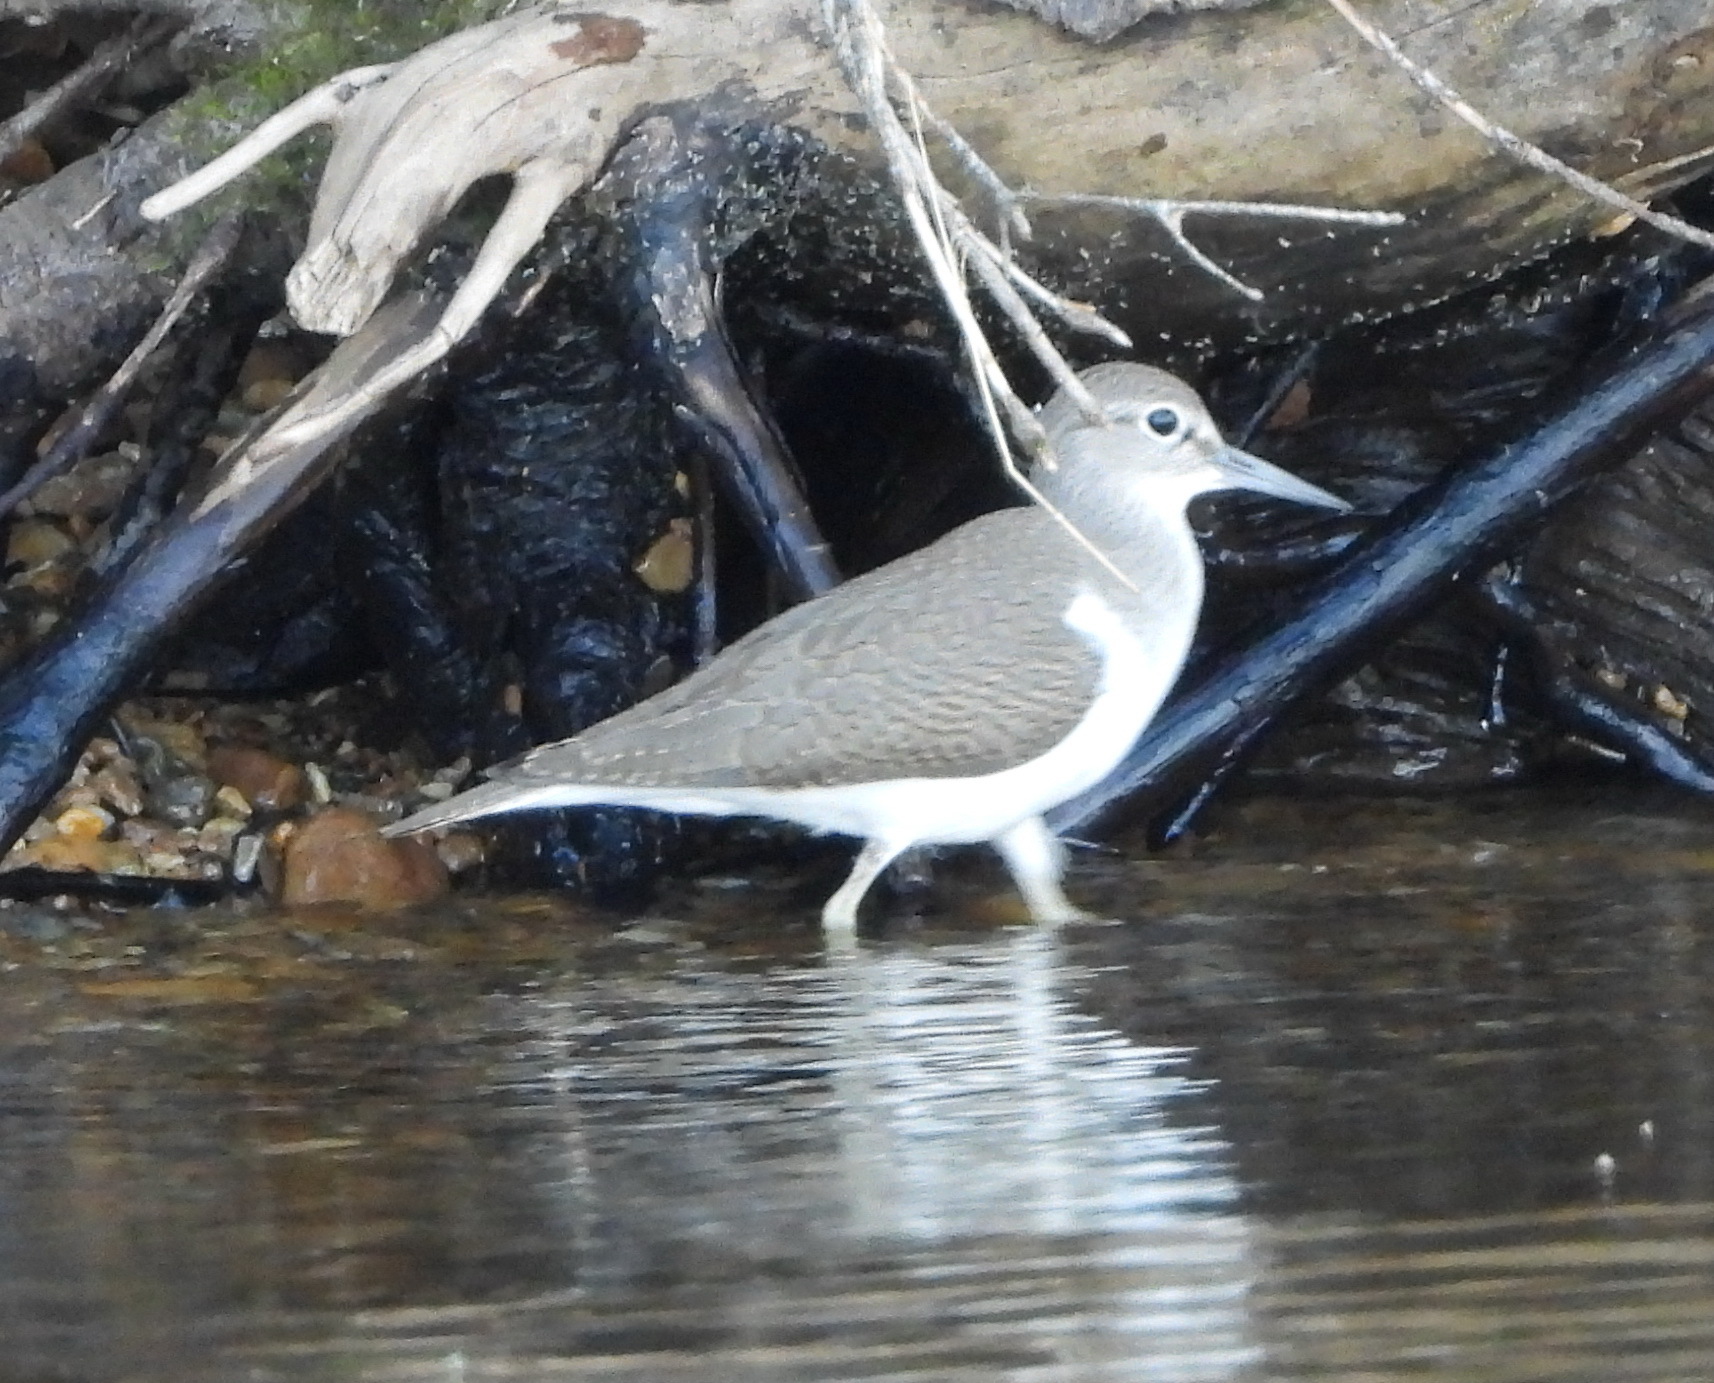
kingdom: Animalia
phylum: Chordata
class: Aves
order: Charadriiformes
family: Scolopacidae
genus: Actitis
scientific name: Actitis hypoleucos
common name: Common sandpiper
